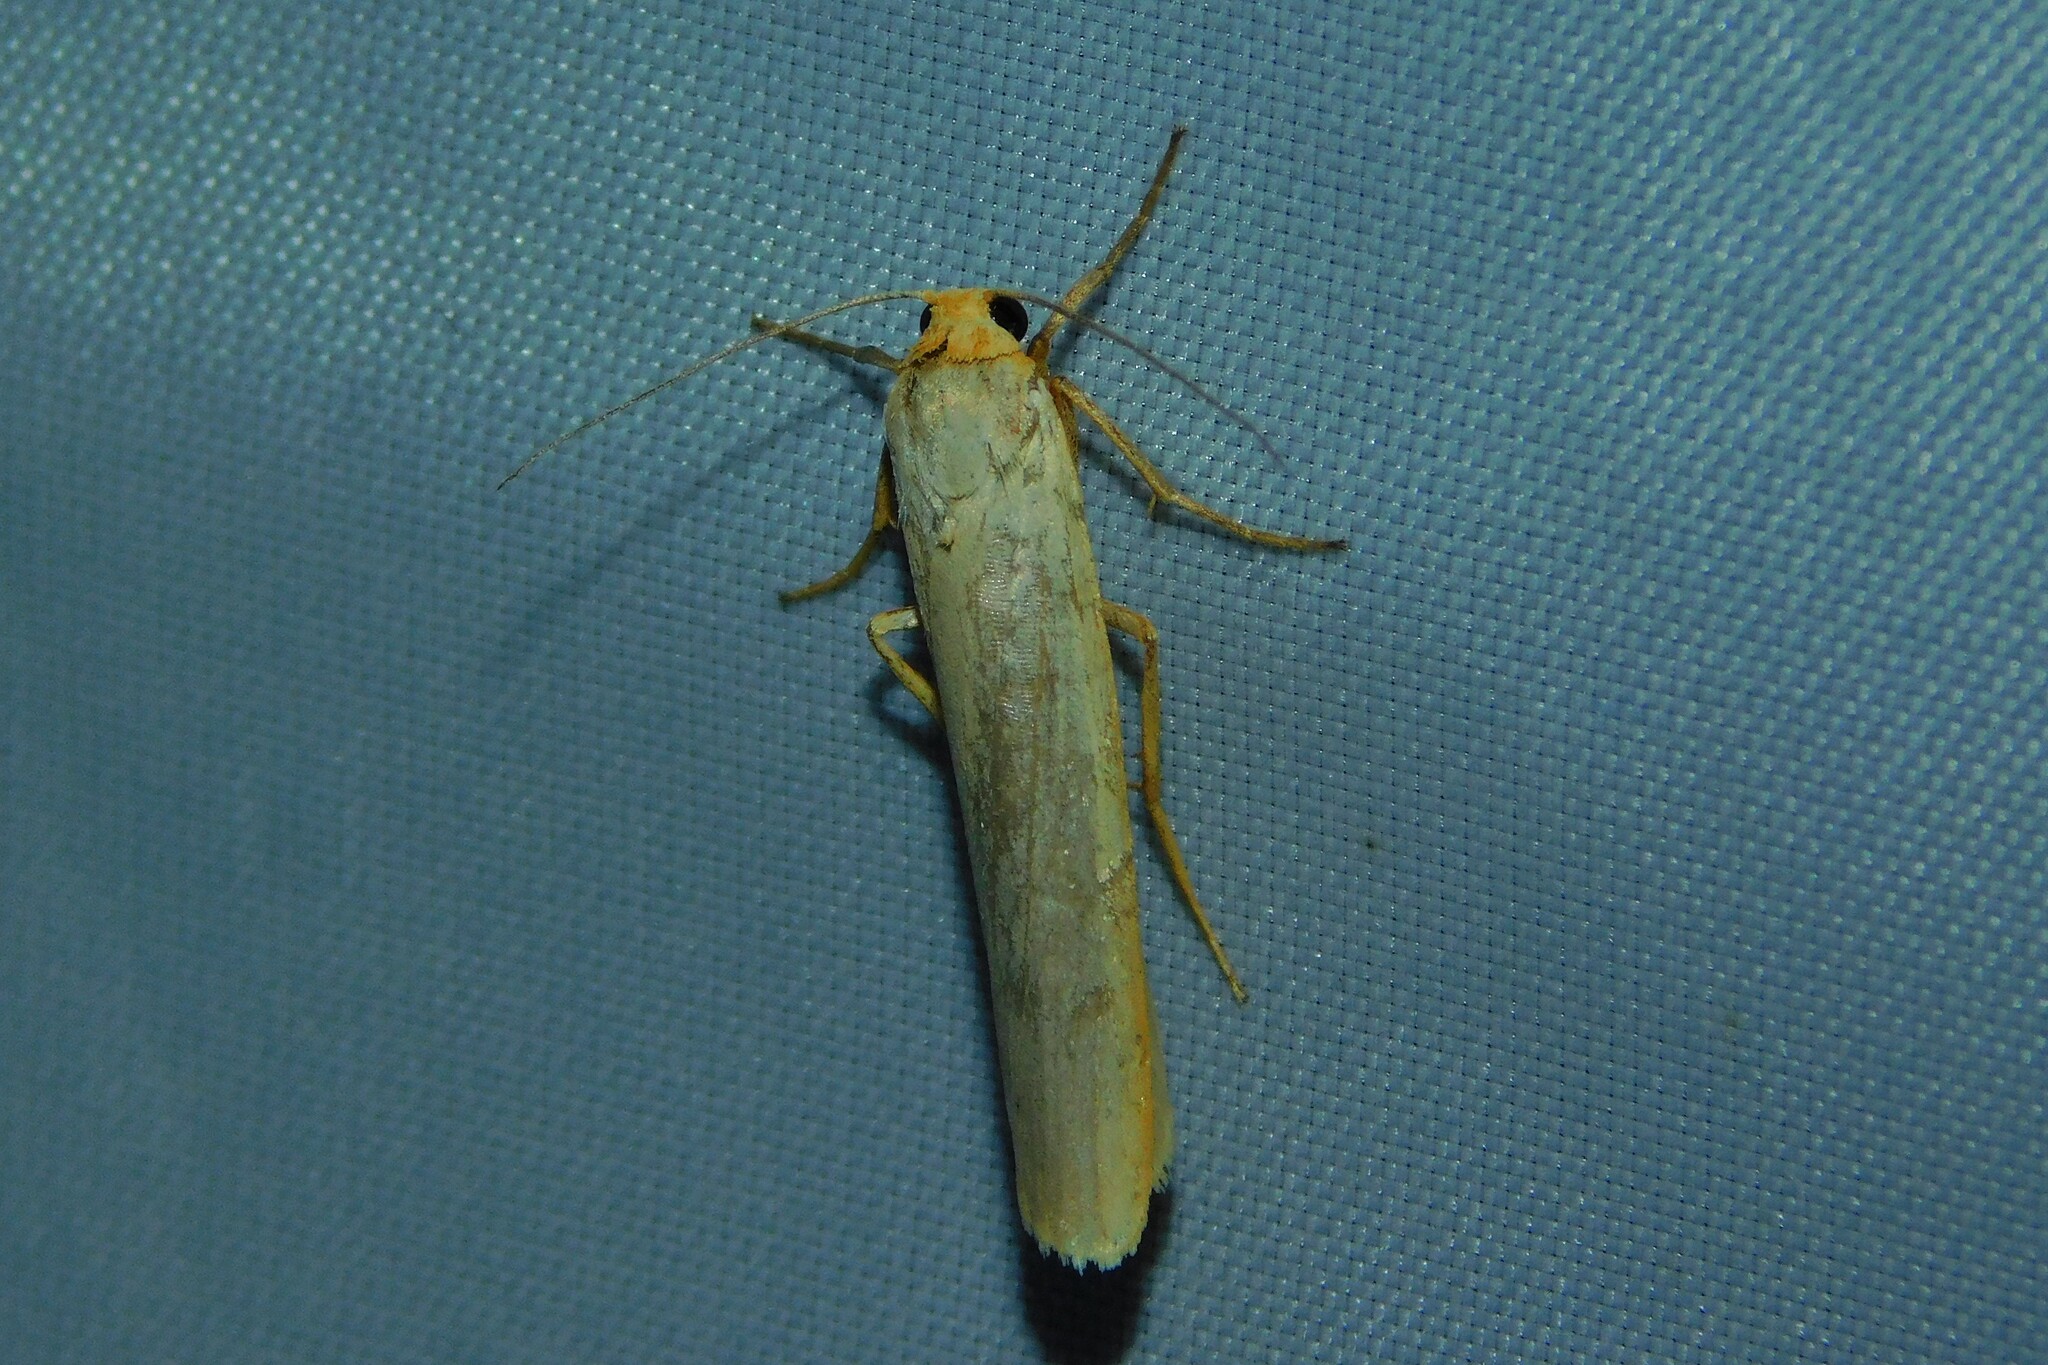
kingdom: Animalia
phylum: Arthropoda
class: Insecta
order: Lepidoptera
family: Erebidae
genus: Manulea
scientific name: Manulea complana
